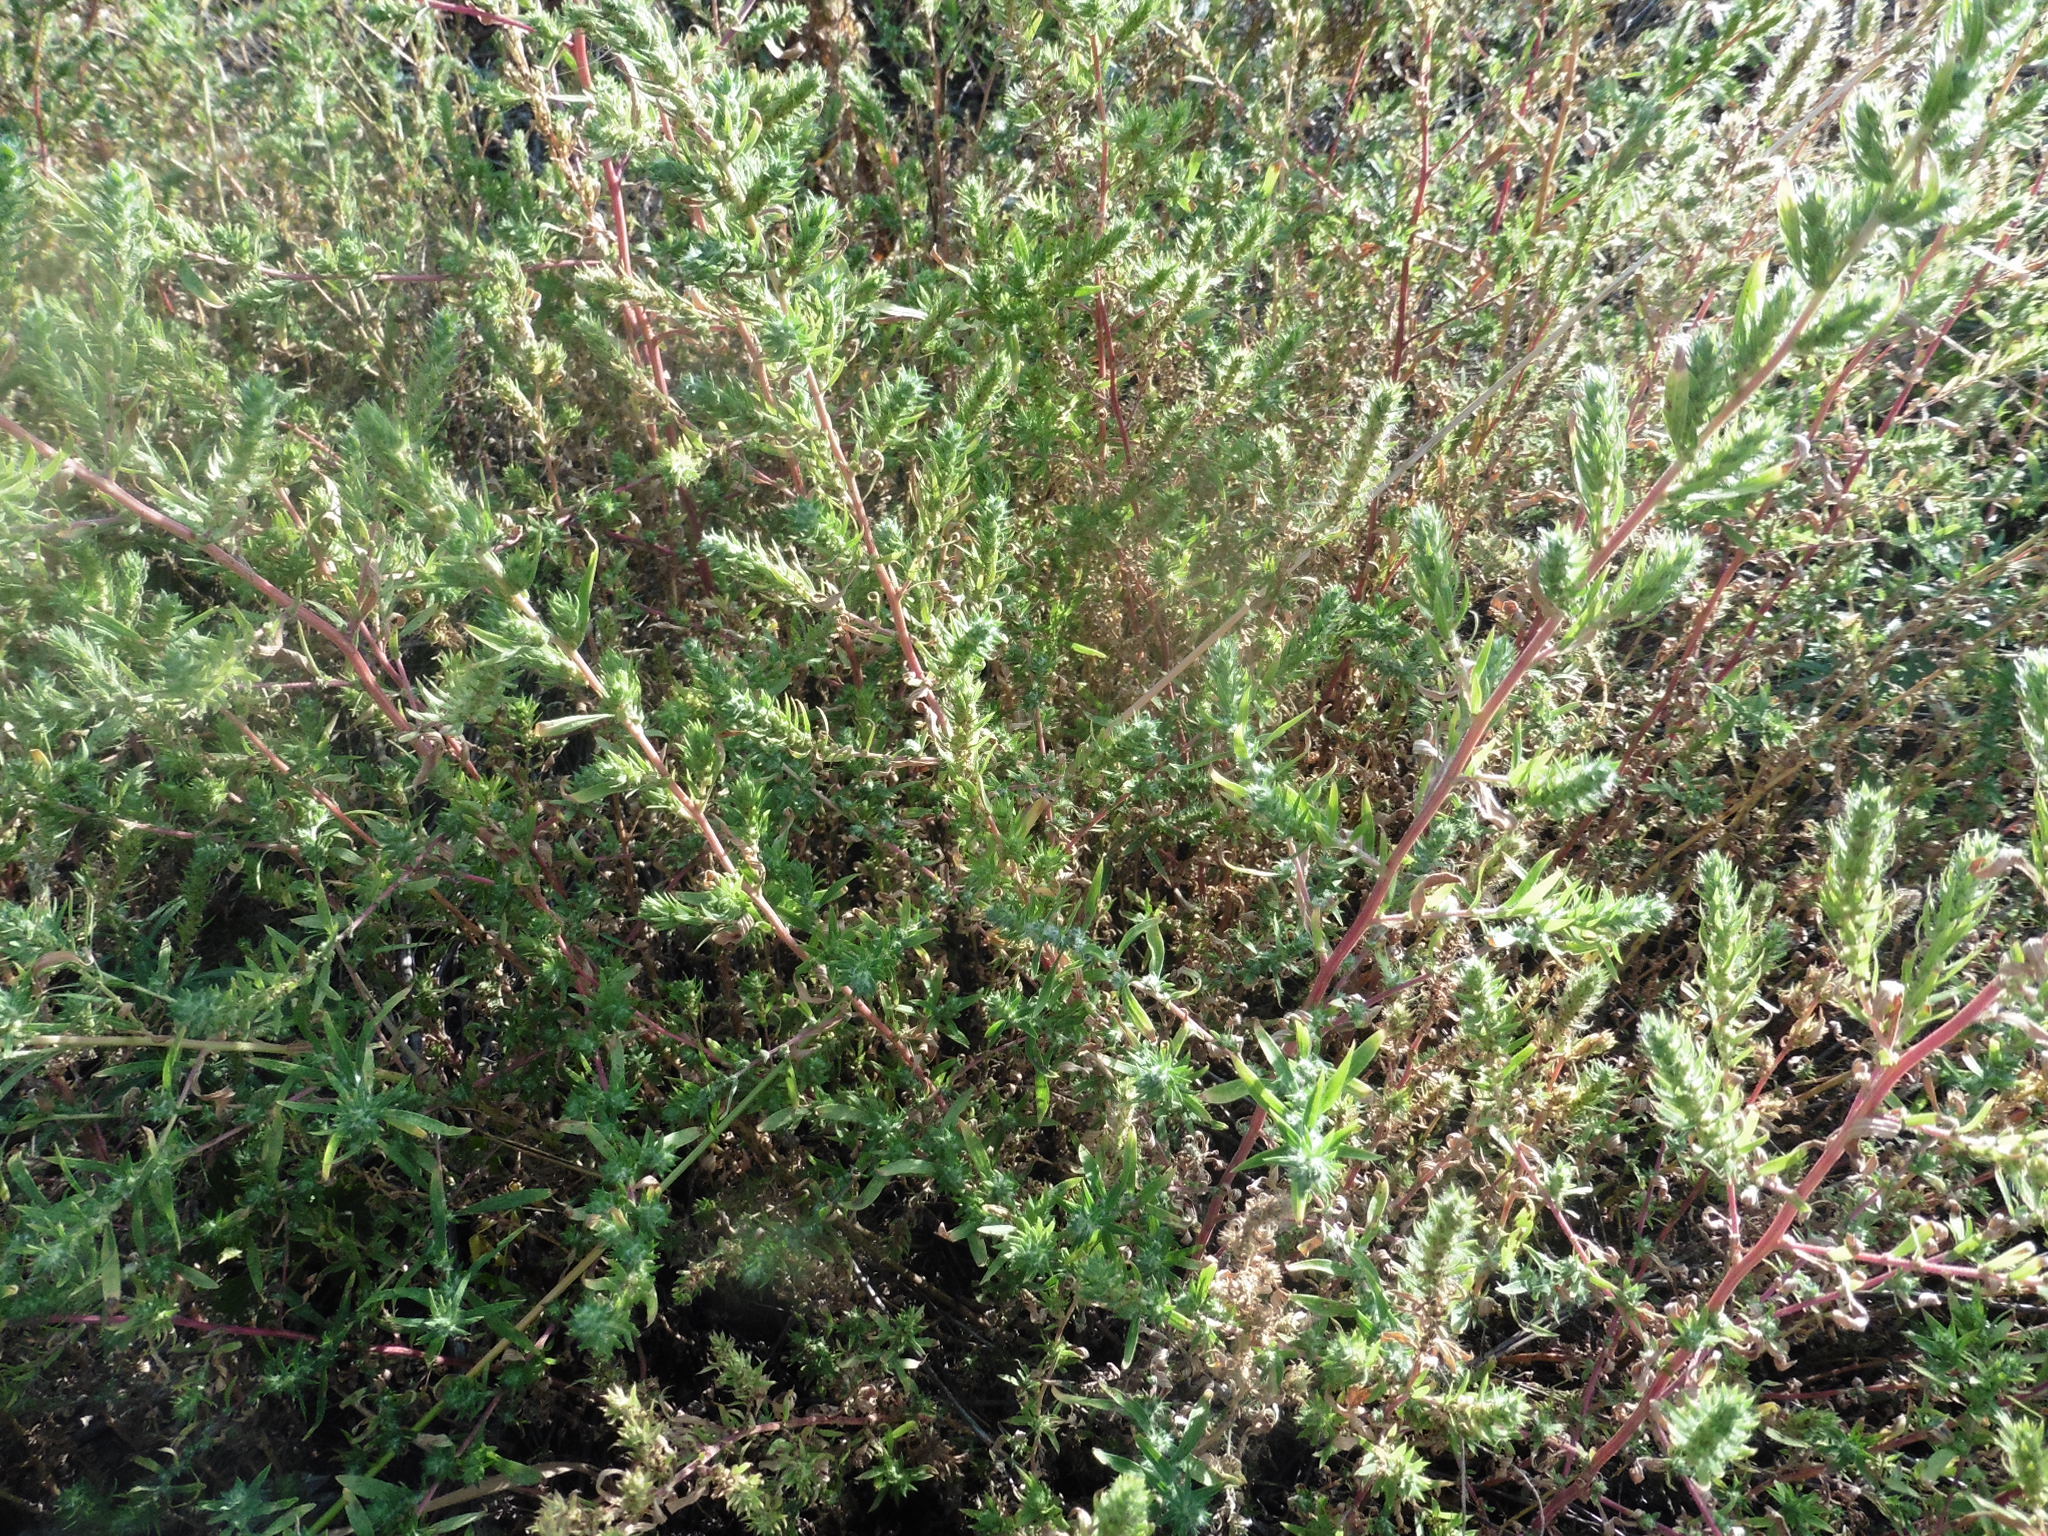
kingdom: Plantae
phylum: Tracheophyta
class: Magnoliopsida
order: Caryophyllales
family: Amaranthaceae
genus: Bassia
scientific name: Bassia scoparia
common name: Belvedere
